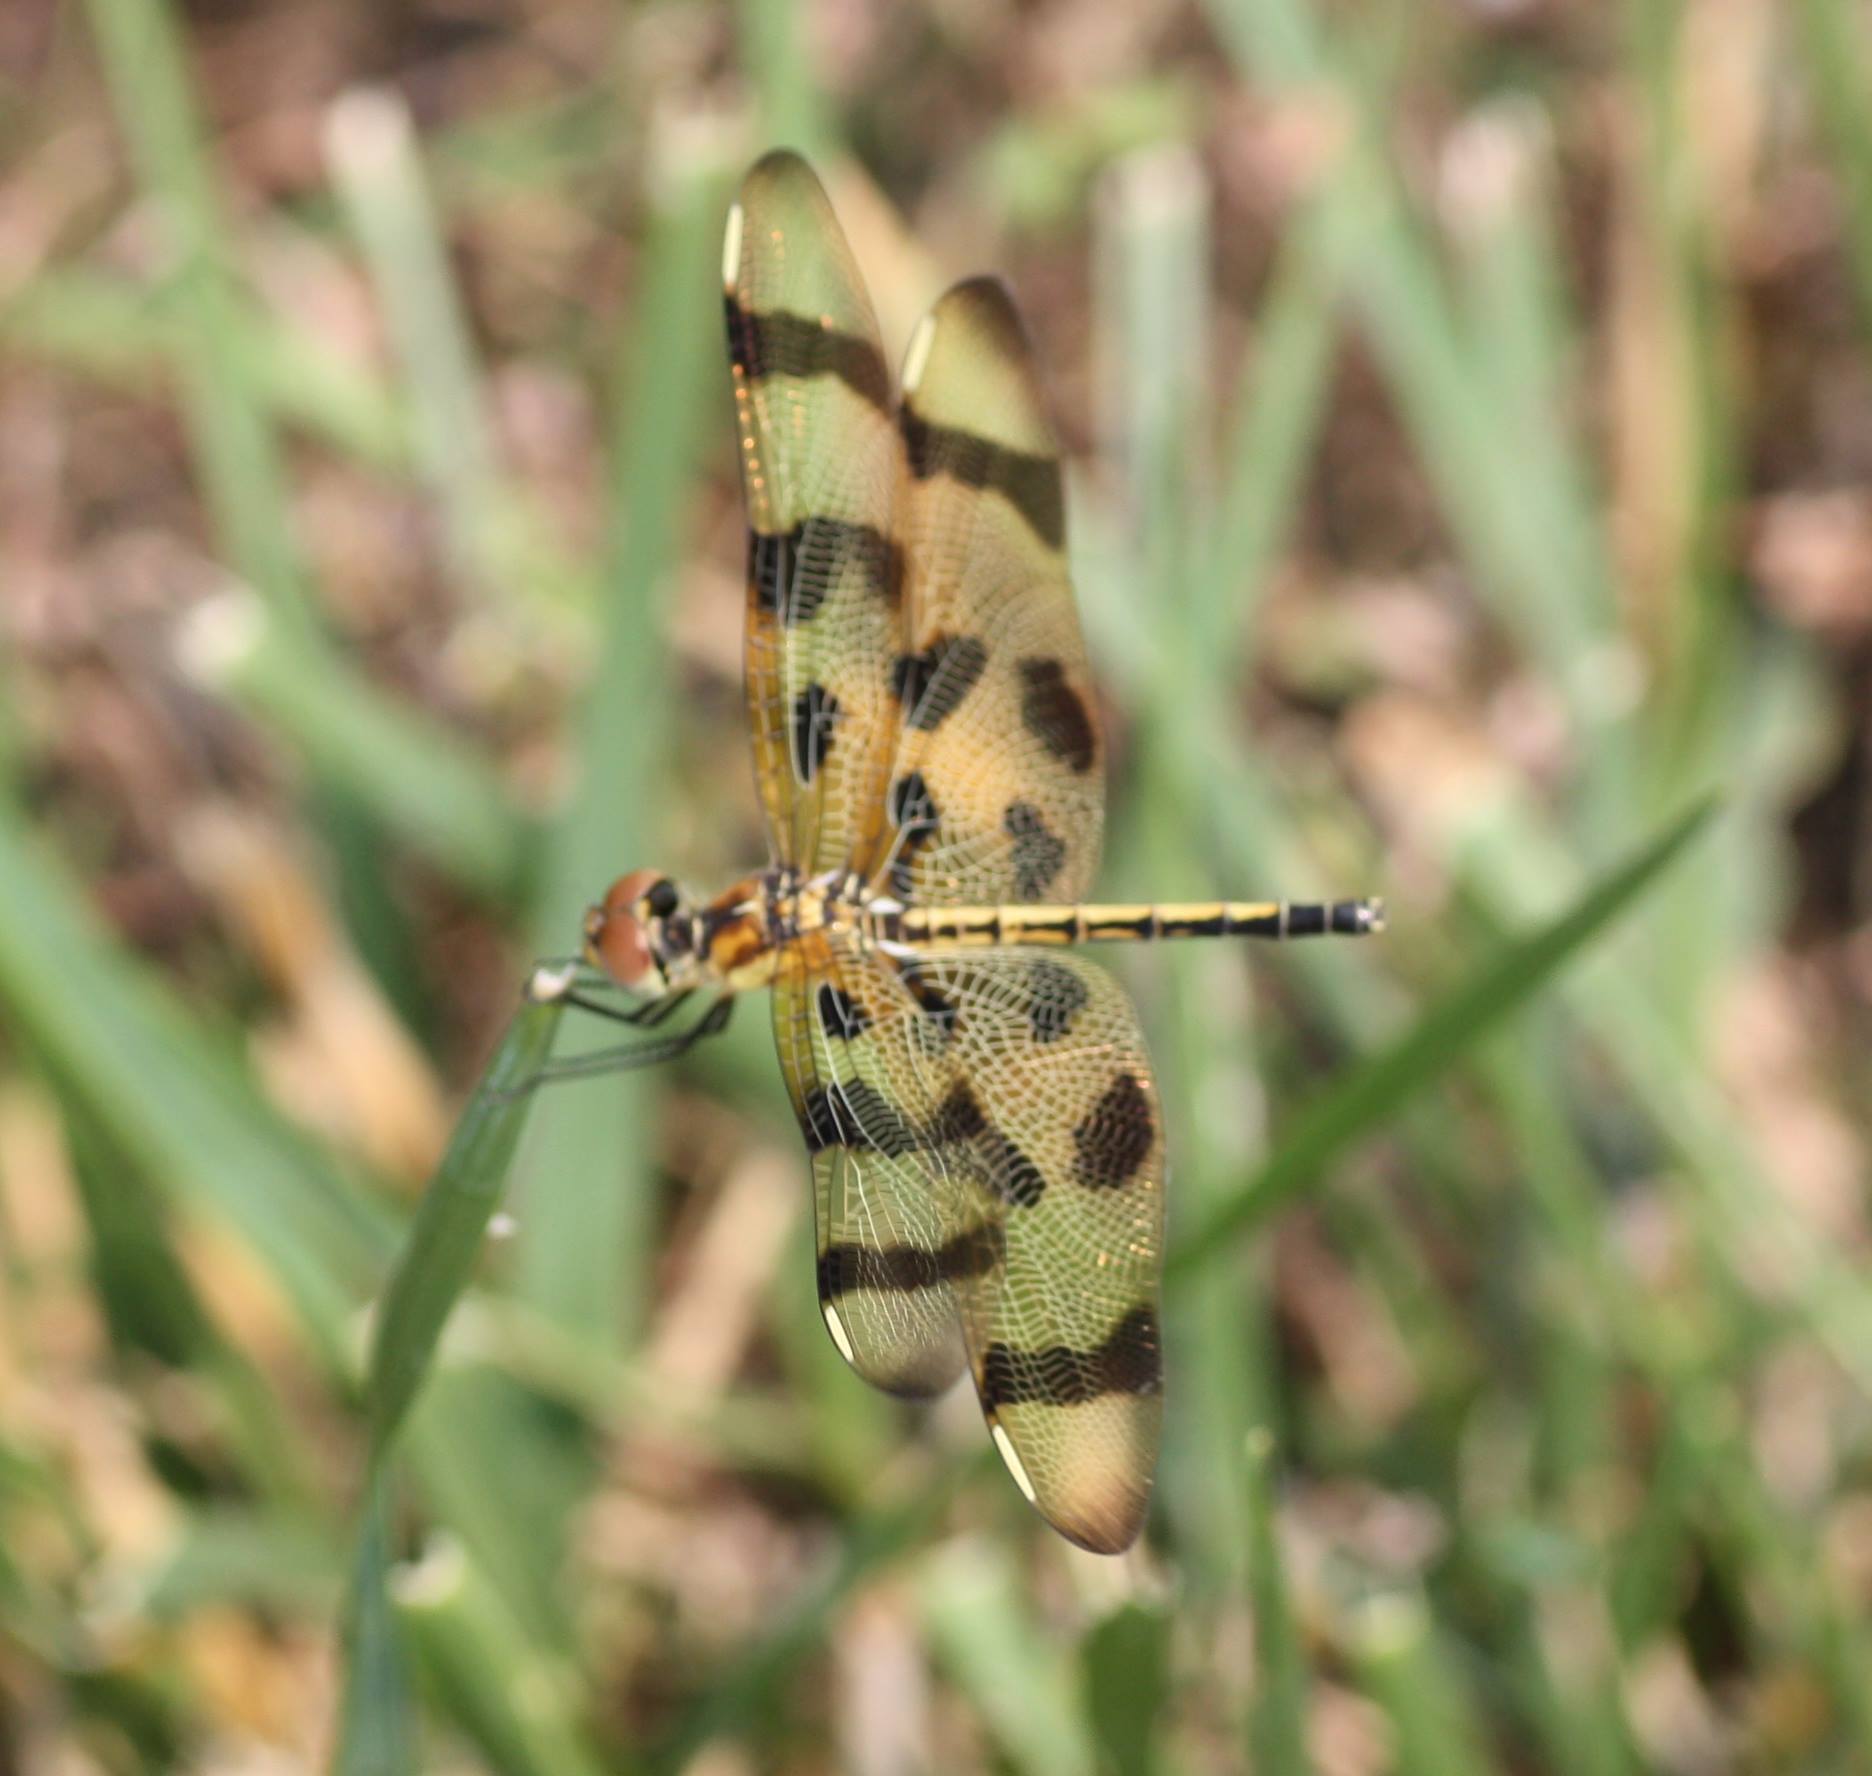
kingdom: Animalia
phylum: Arthropoda
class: Insecta
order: Odonata
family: Libellulidae
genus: Celithemis
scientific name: Celithemis eponina
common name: Halloween pennant
